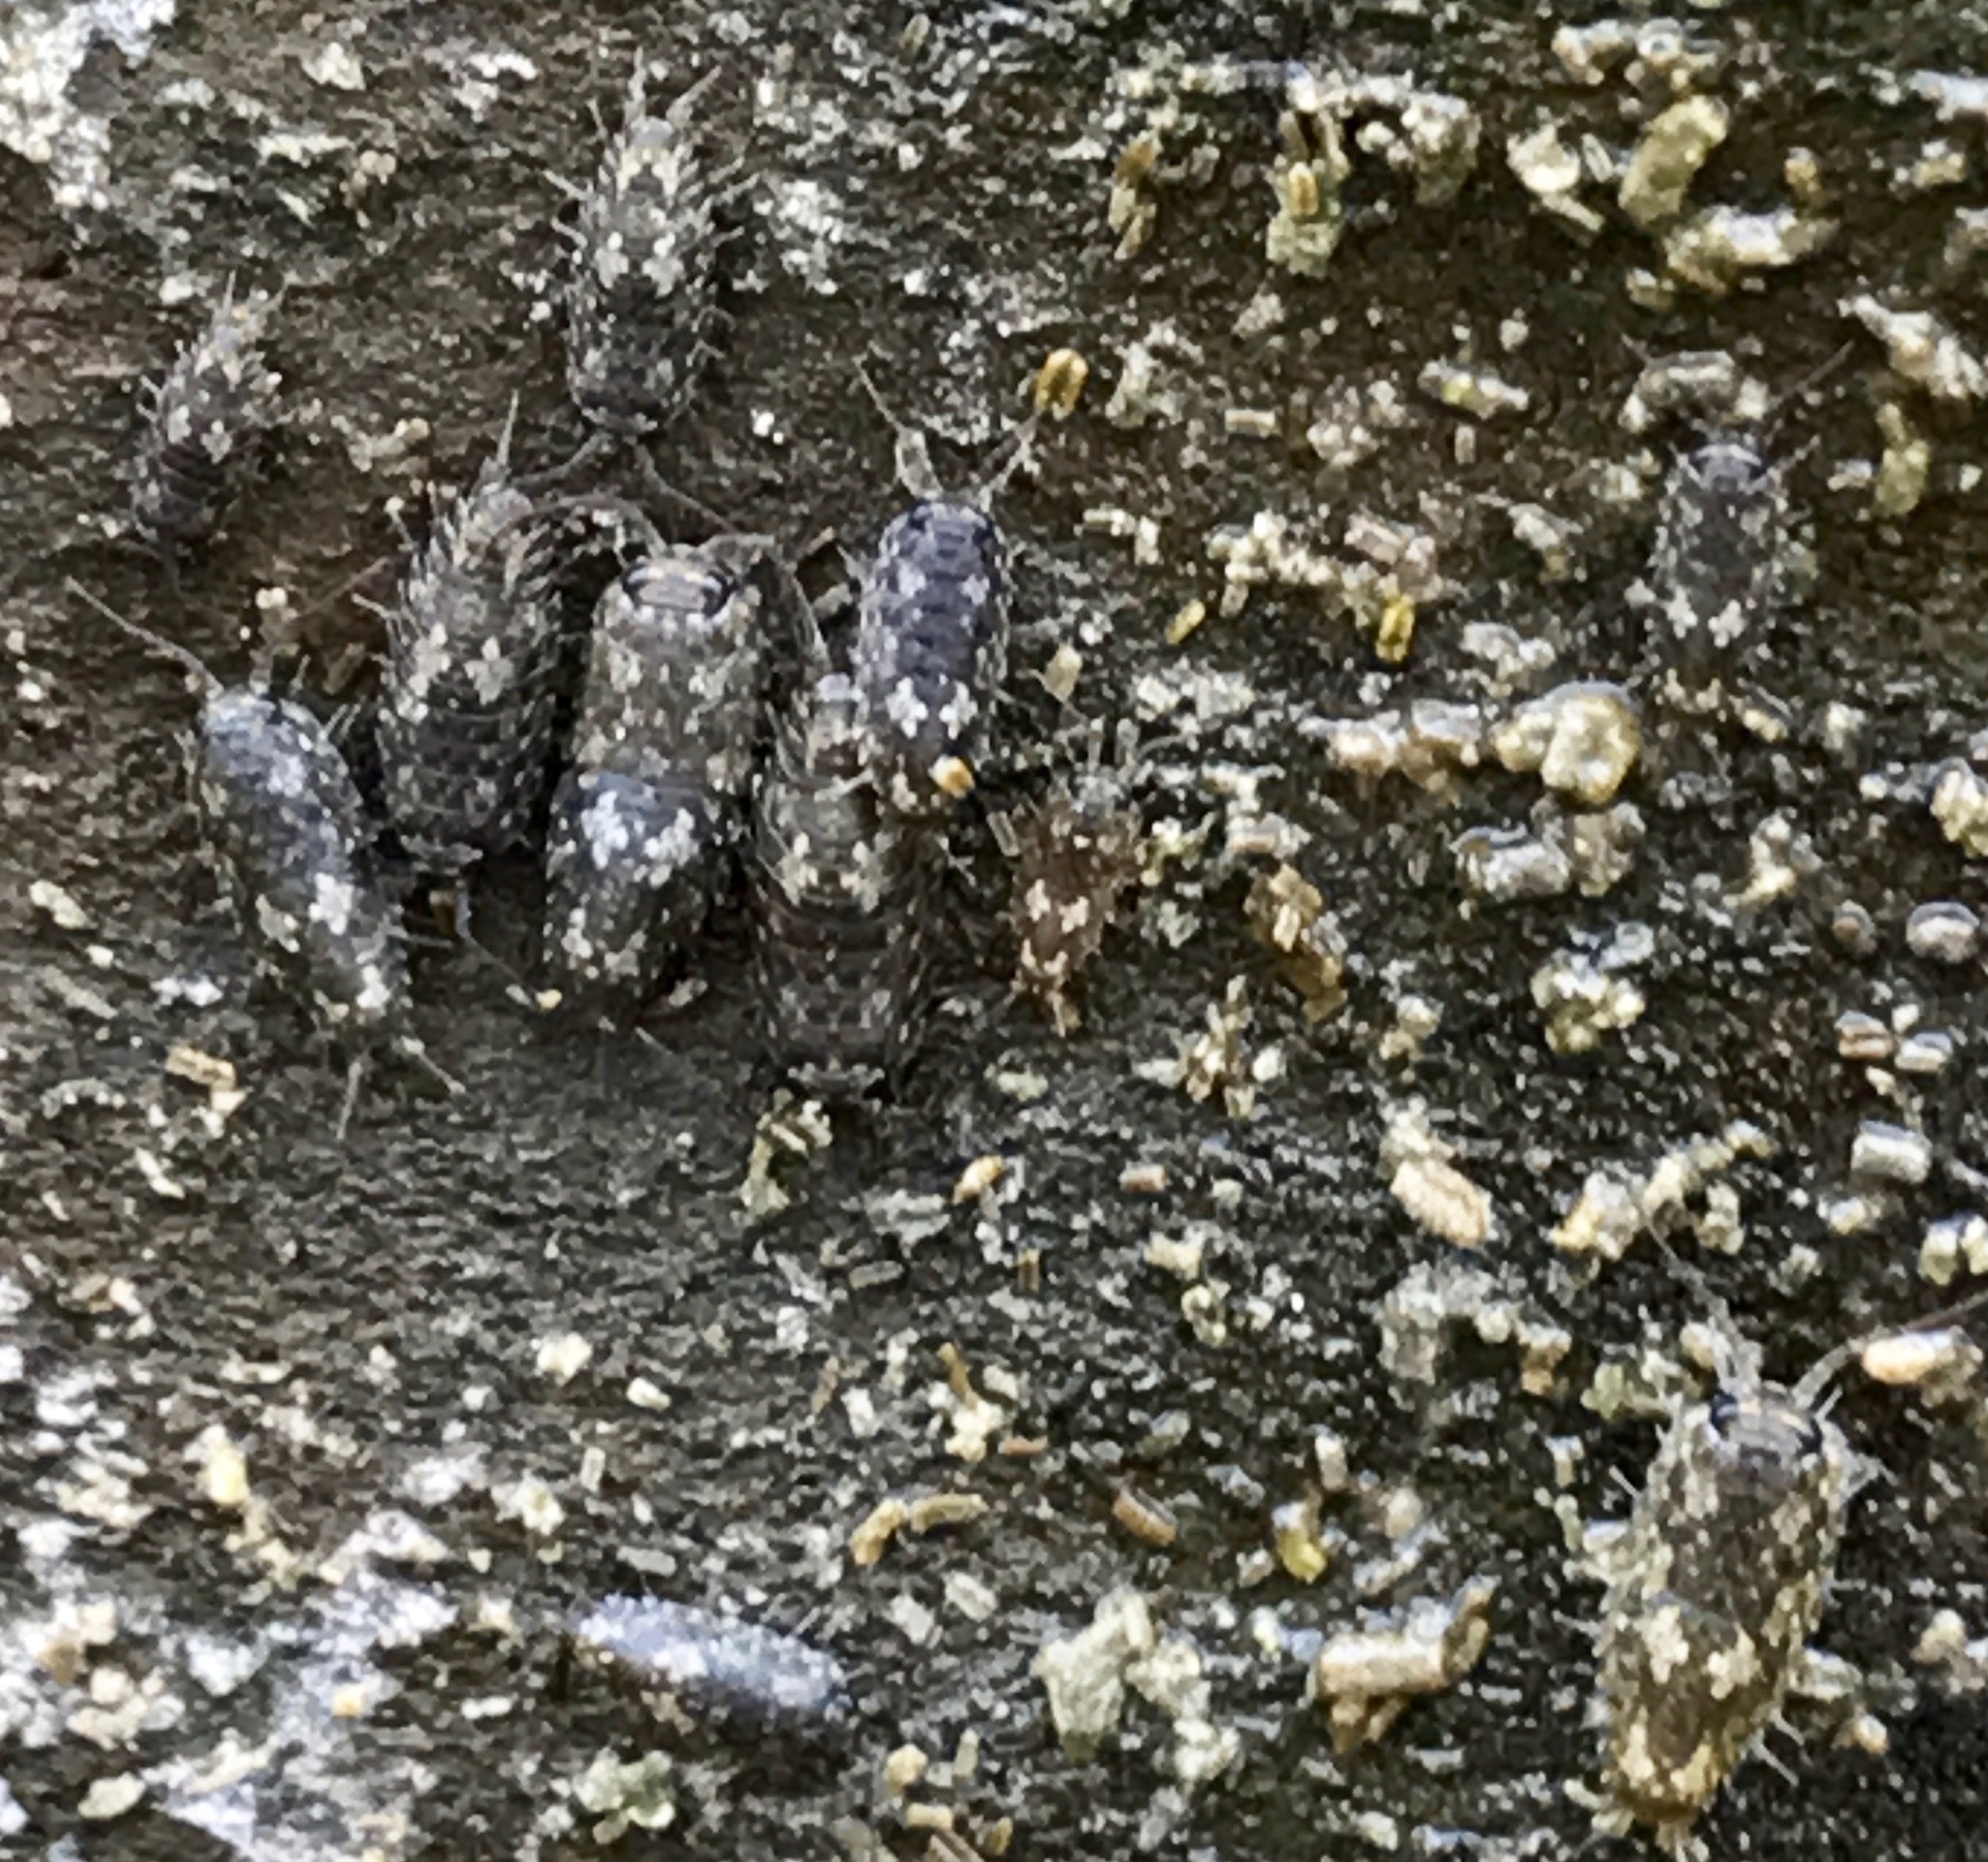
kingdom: Animalia
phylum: Arthropoda
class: Malacostraca
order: Isopoda
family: Ligiidae
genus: Ligia
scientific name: Ligia pallasii
